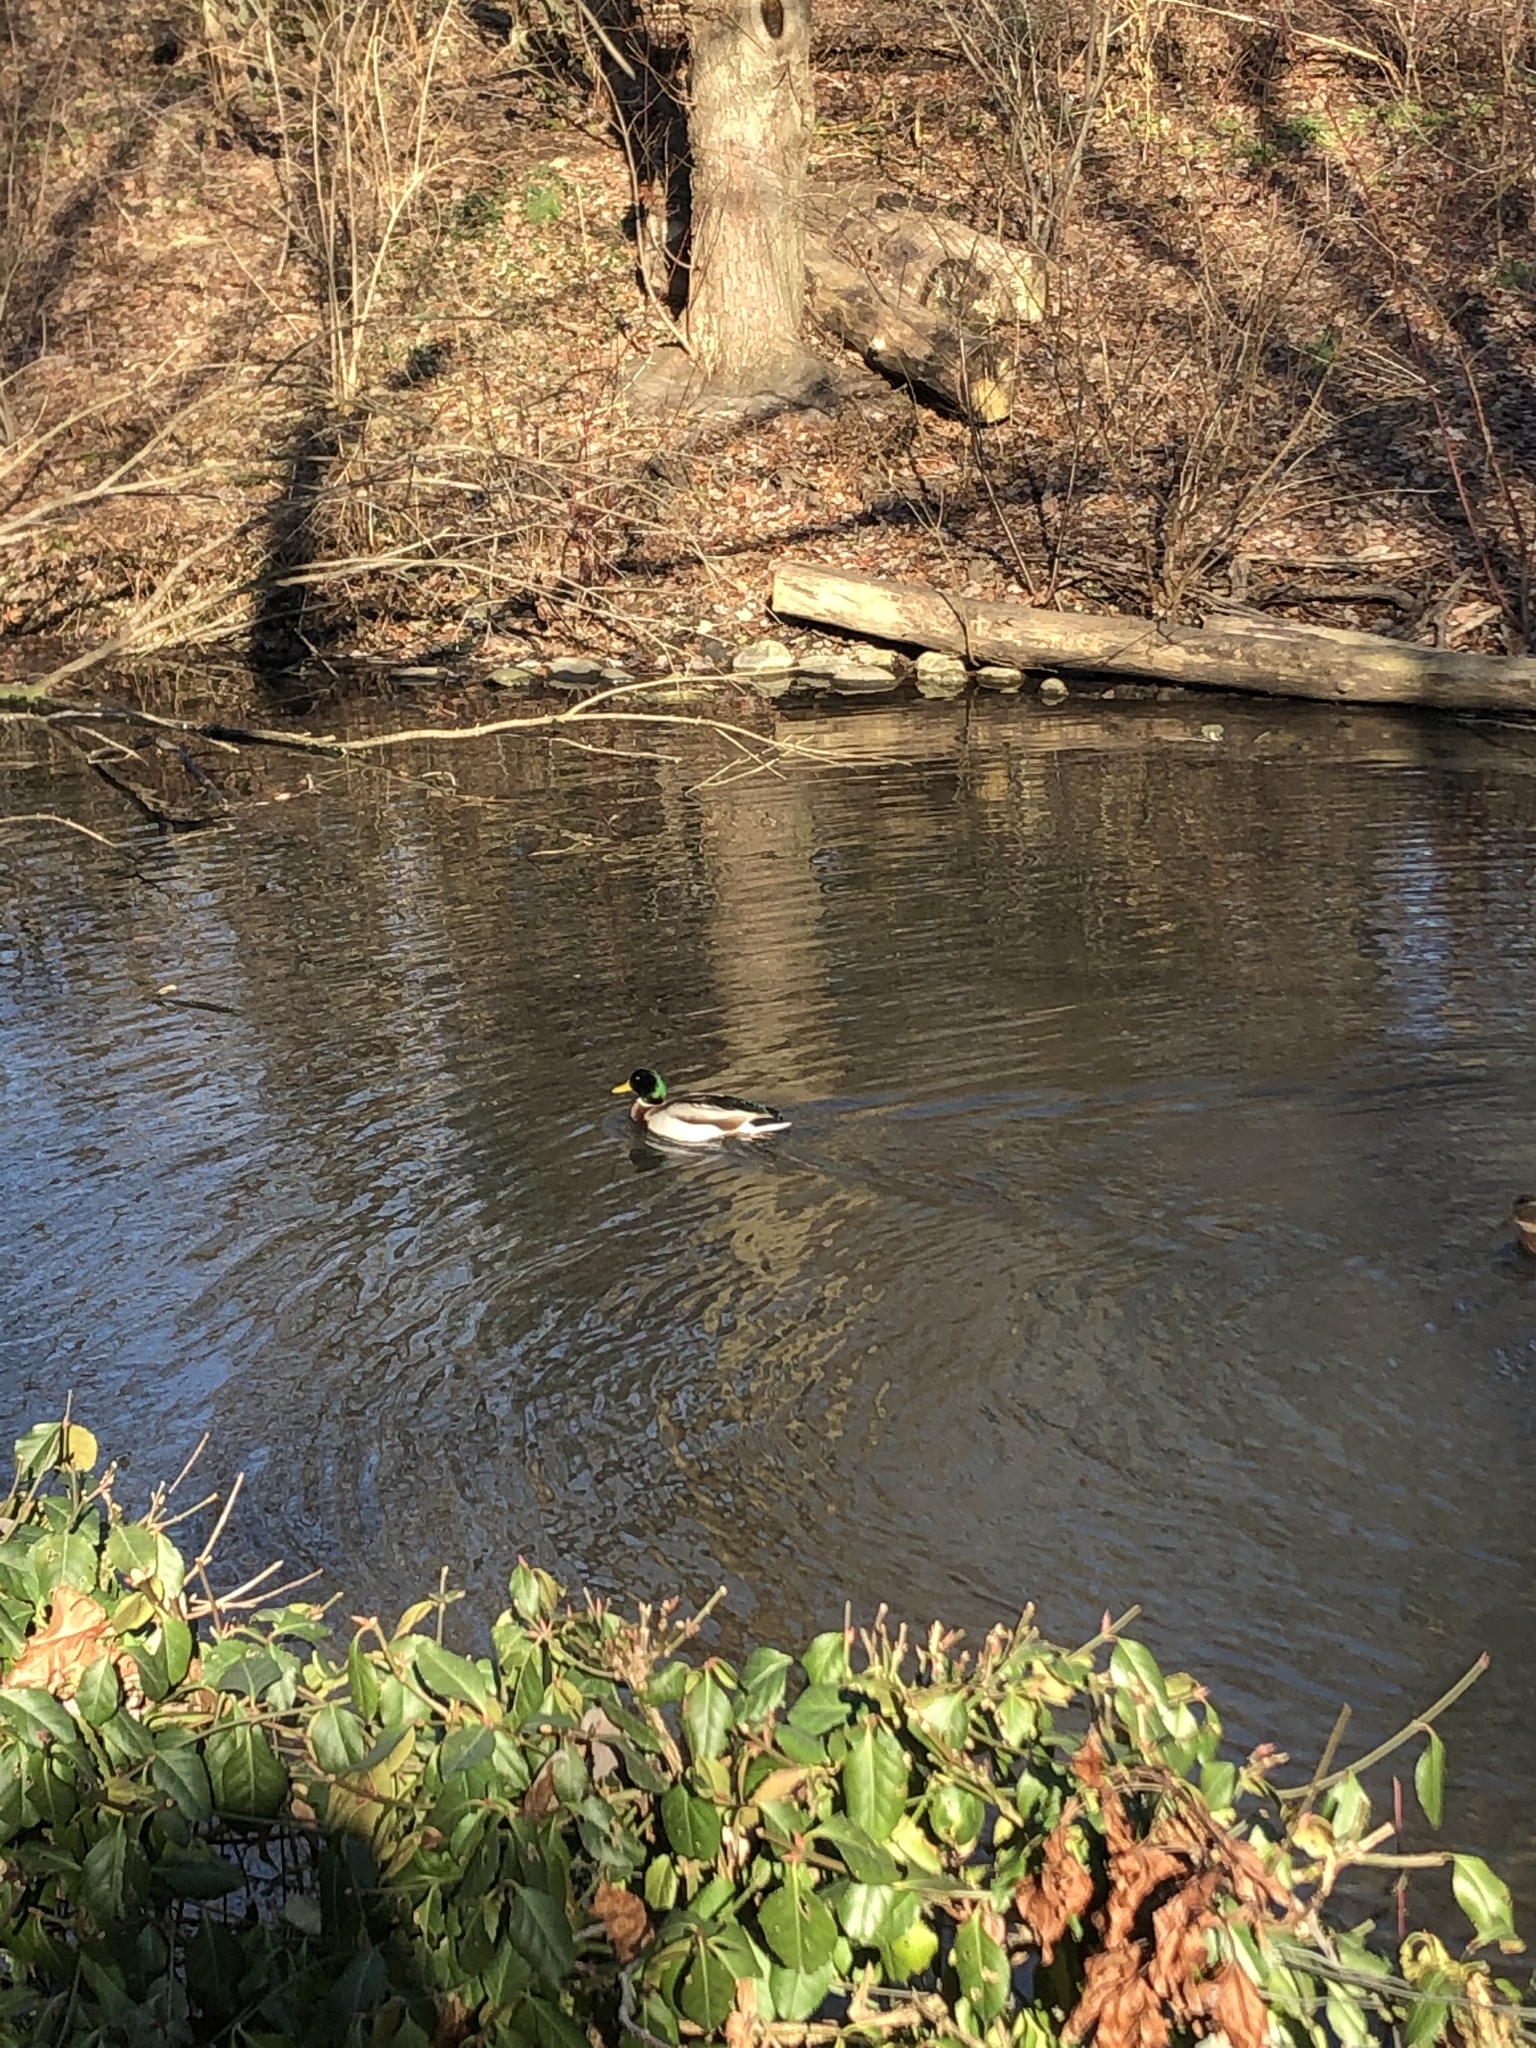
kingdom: Animalia
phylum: Chordata
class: Aves
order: Anseriformes
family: Anatidae
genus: Anas
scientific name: Anas platyrhynchos
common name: Mallard
